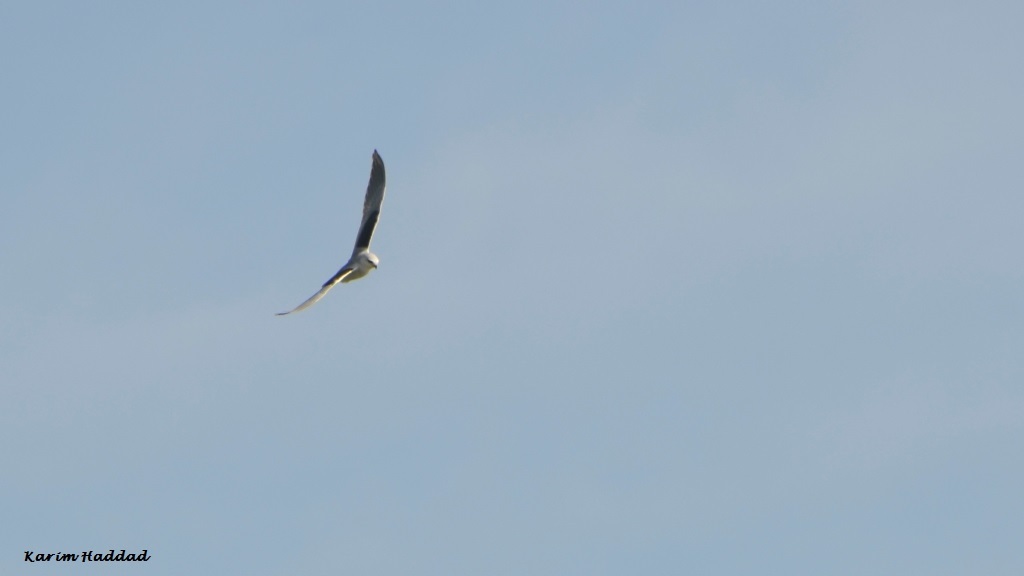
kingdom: Animalia
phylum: Chordata
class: Aves
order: Accipitriformes
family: Accipitridae
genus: Elanus
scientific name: Elanus caeruleus
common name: Black-winged kite
